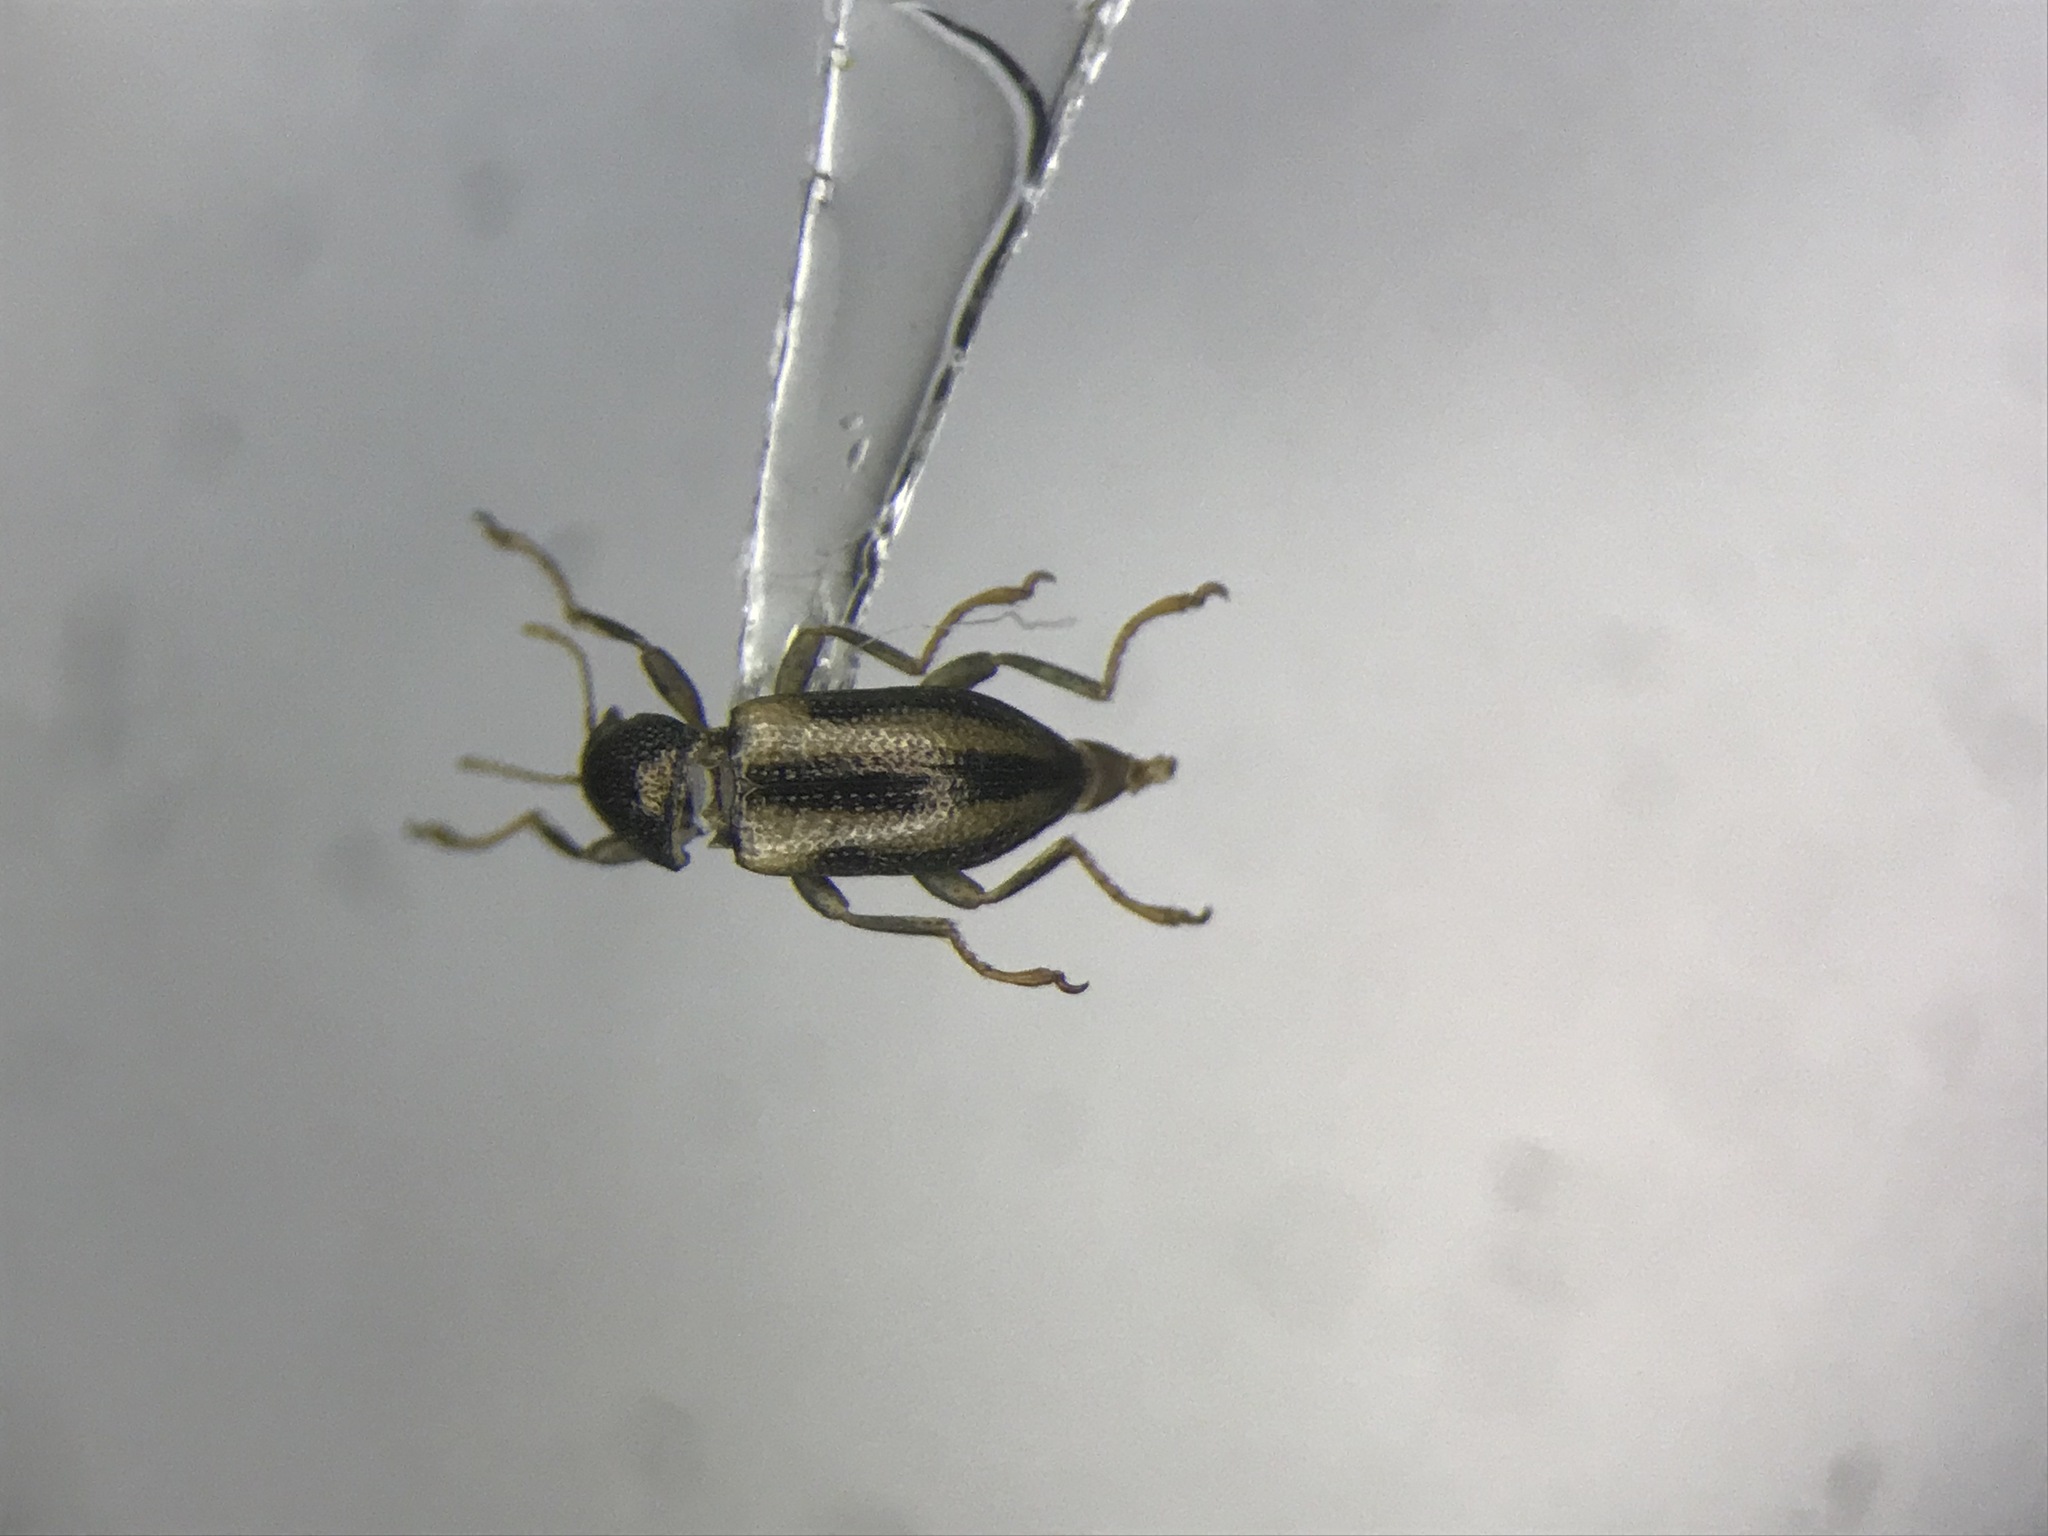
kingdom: Animalia
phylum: Arthropoda
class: Insecta
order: Coleoptera
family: Elmidae
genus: Dubiraphia
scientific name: Dubiraphia vittata
